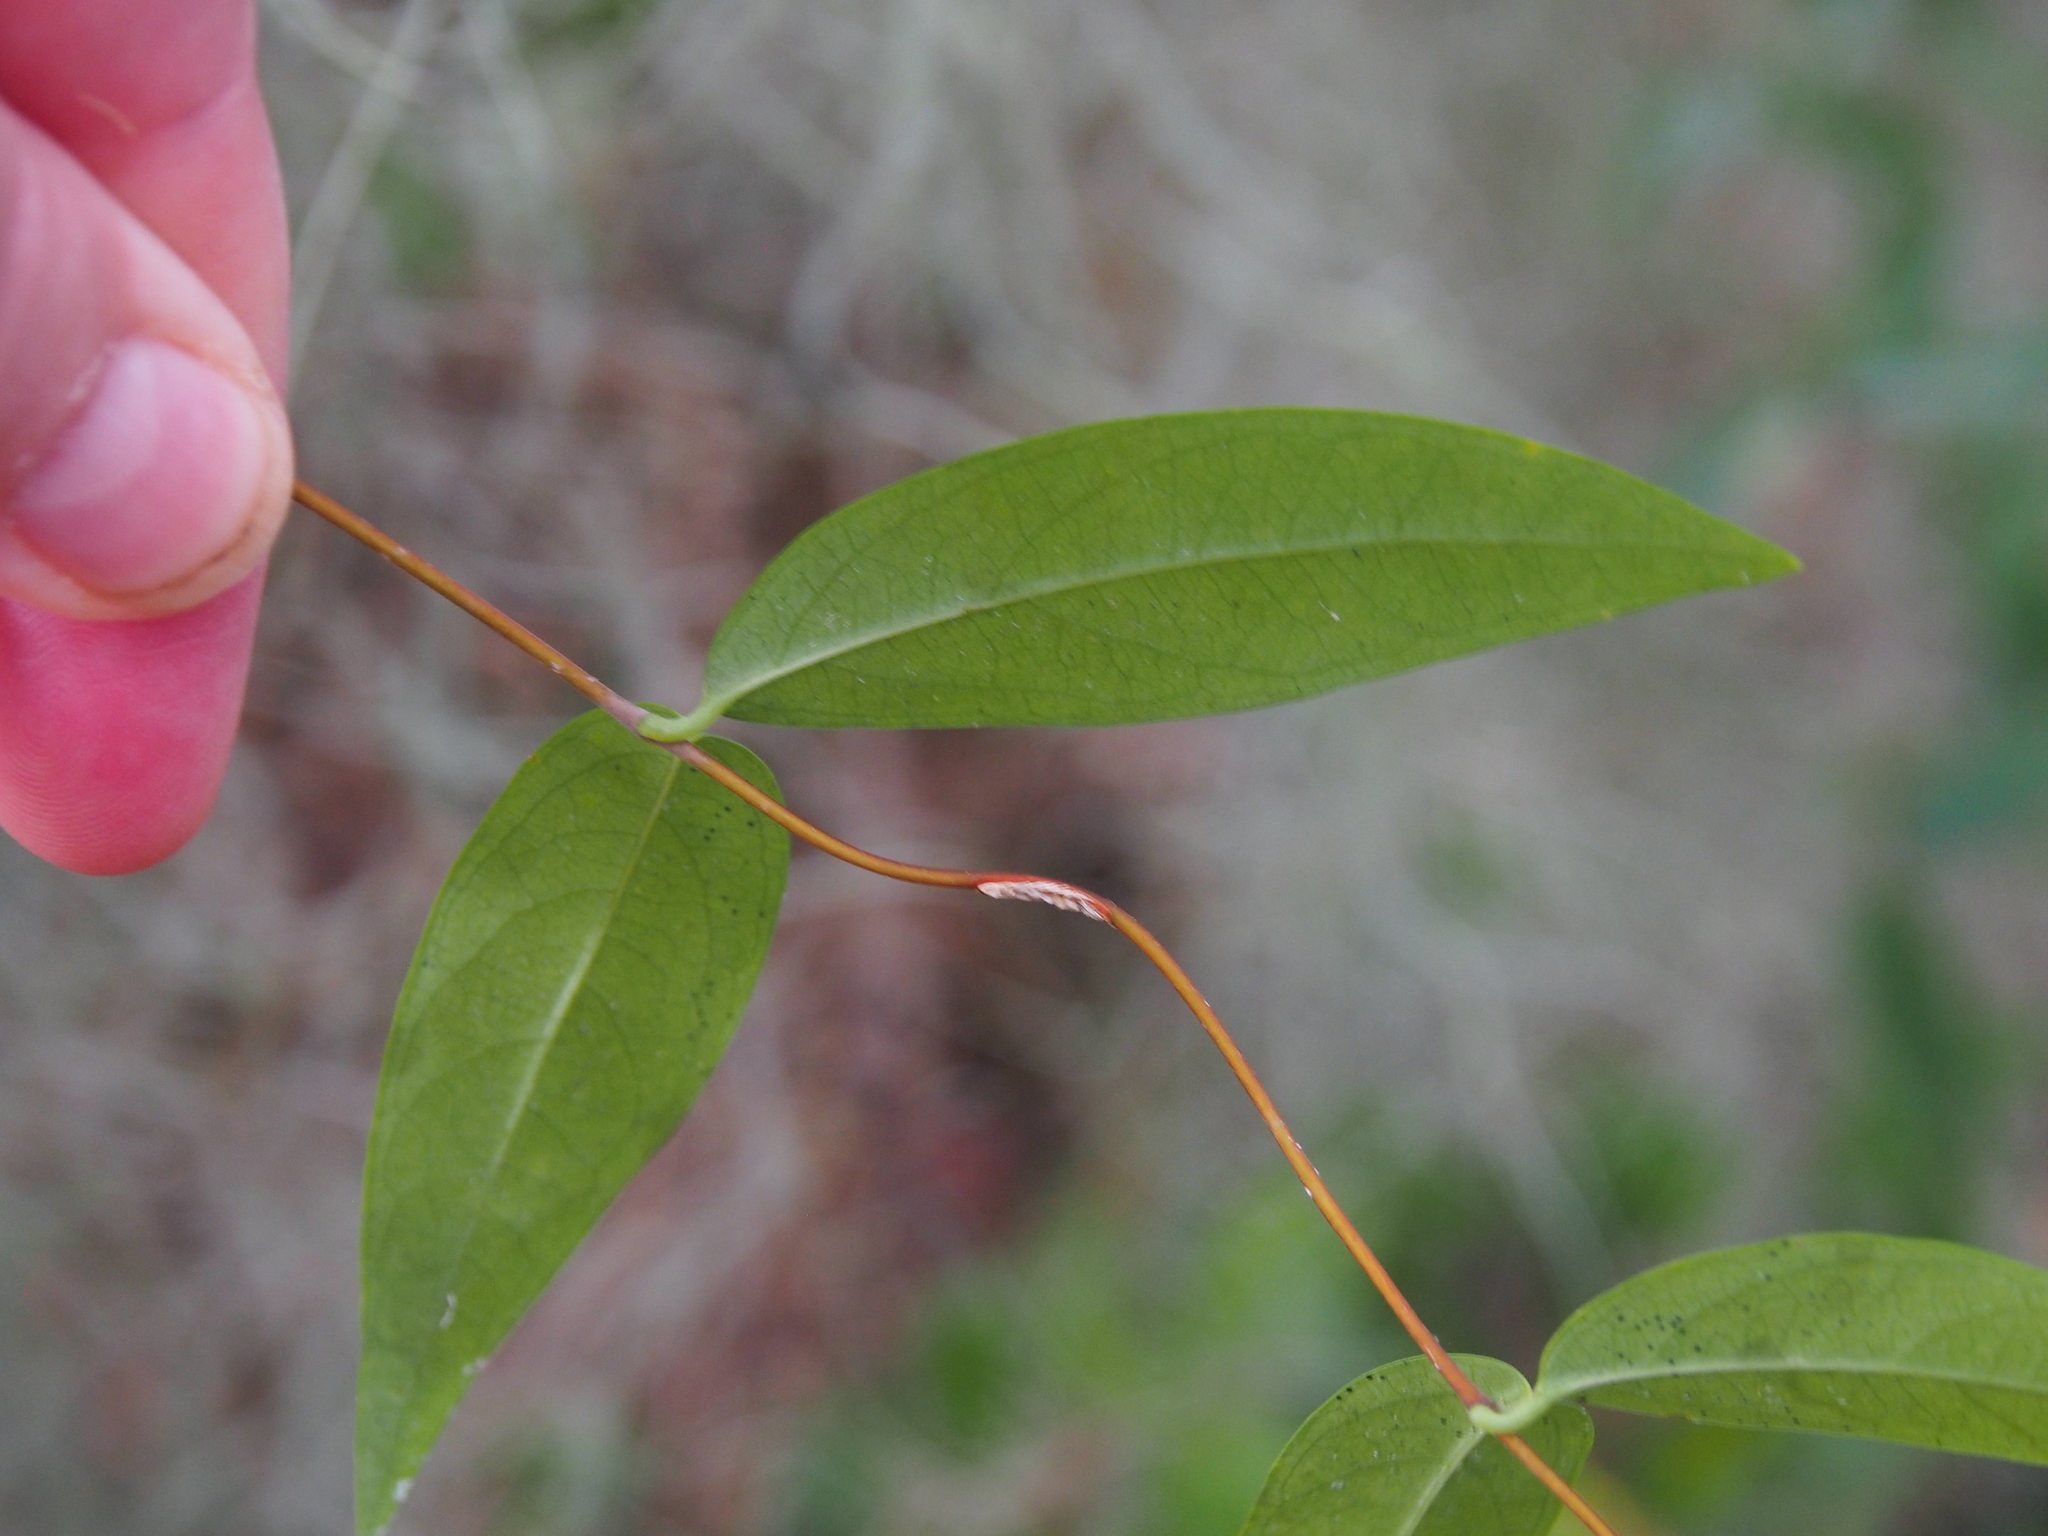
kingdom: Plantae
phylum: Tracheophyta
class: Magnoliopsida
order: Gentianales
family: Gelsemiaceae
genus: Gelsemium
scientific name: Gelsemium sempervirens
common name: Carolina-jasmine
